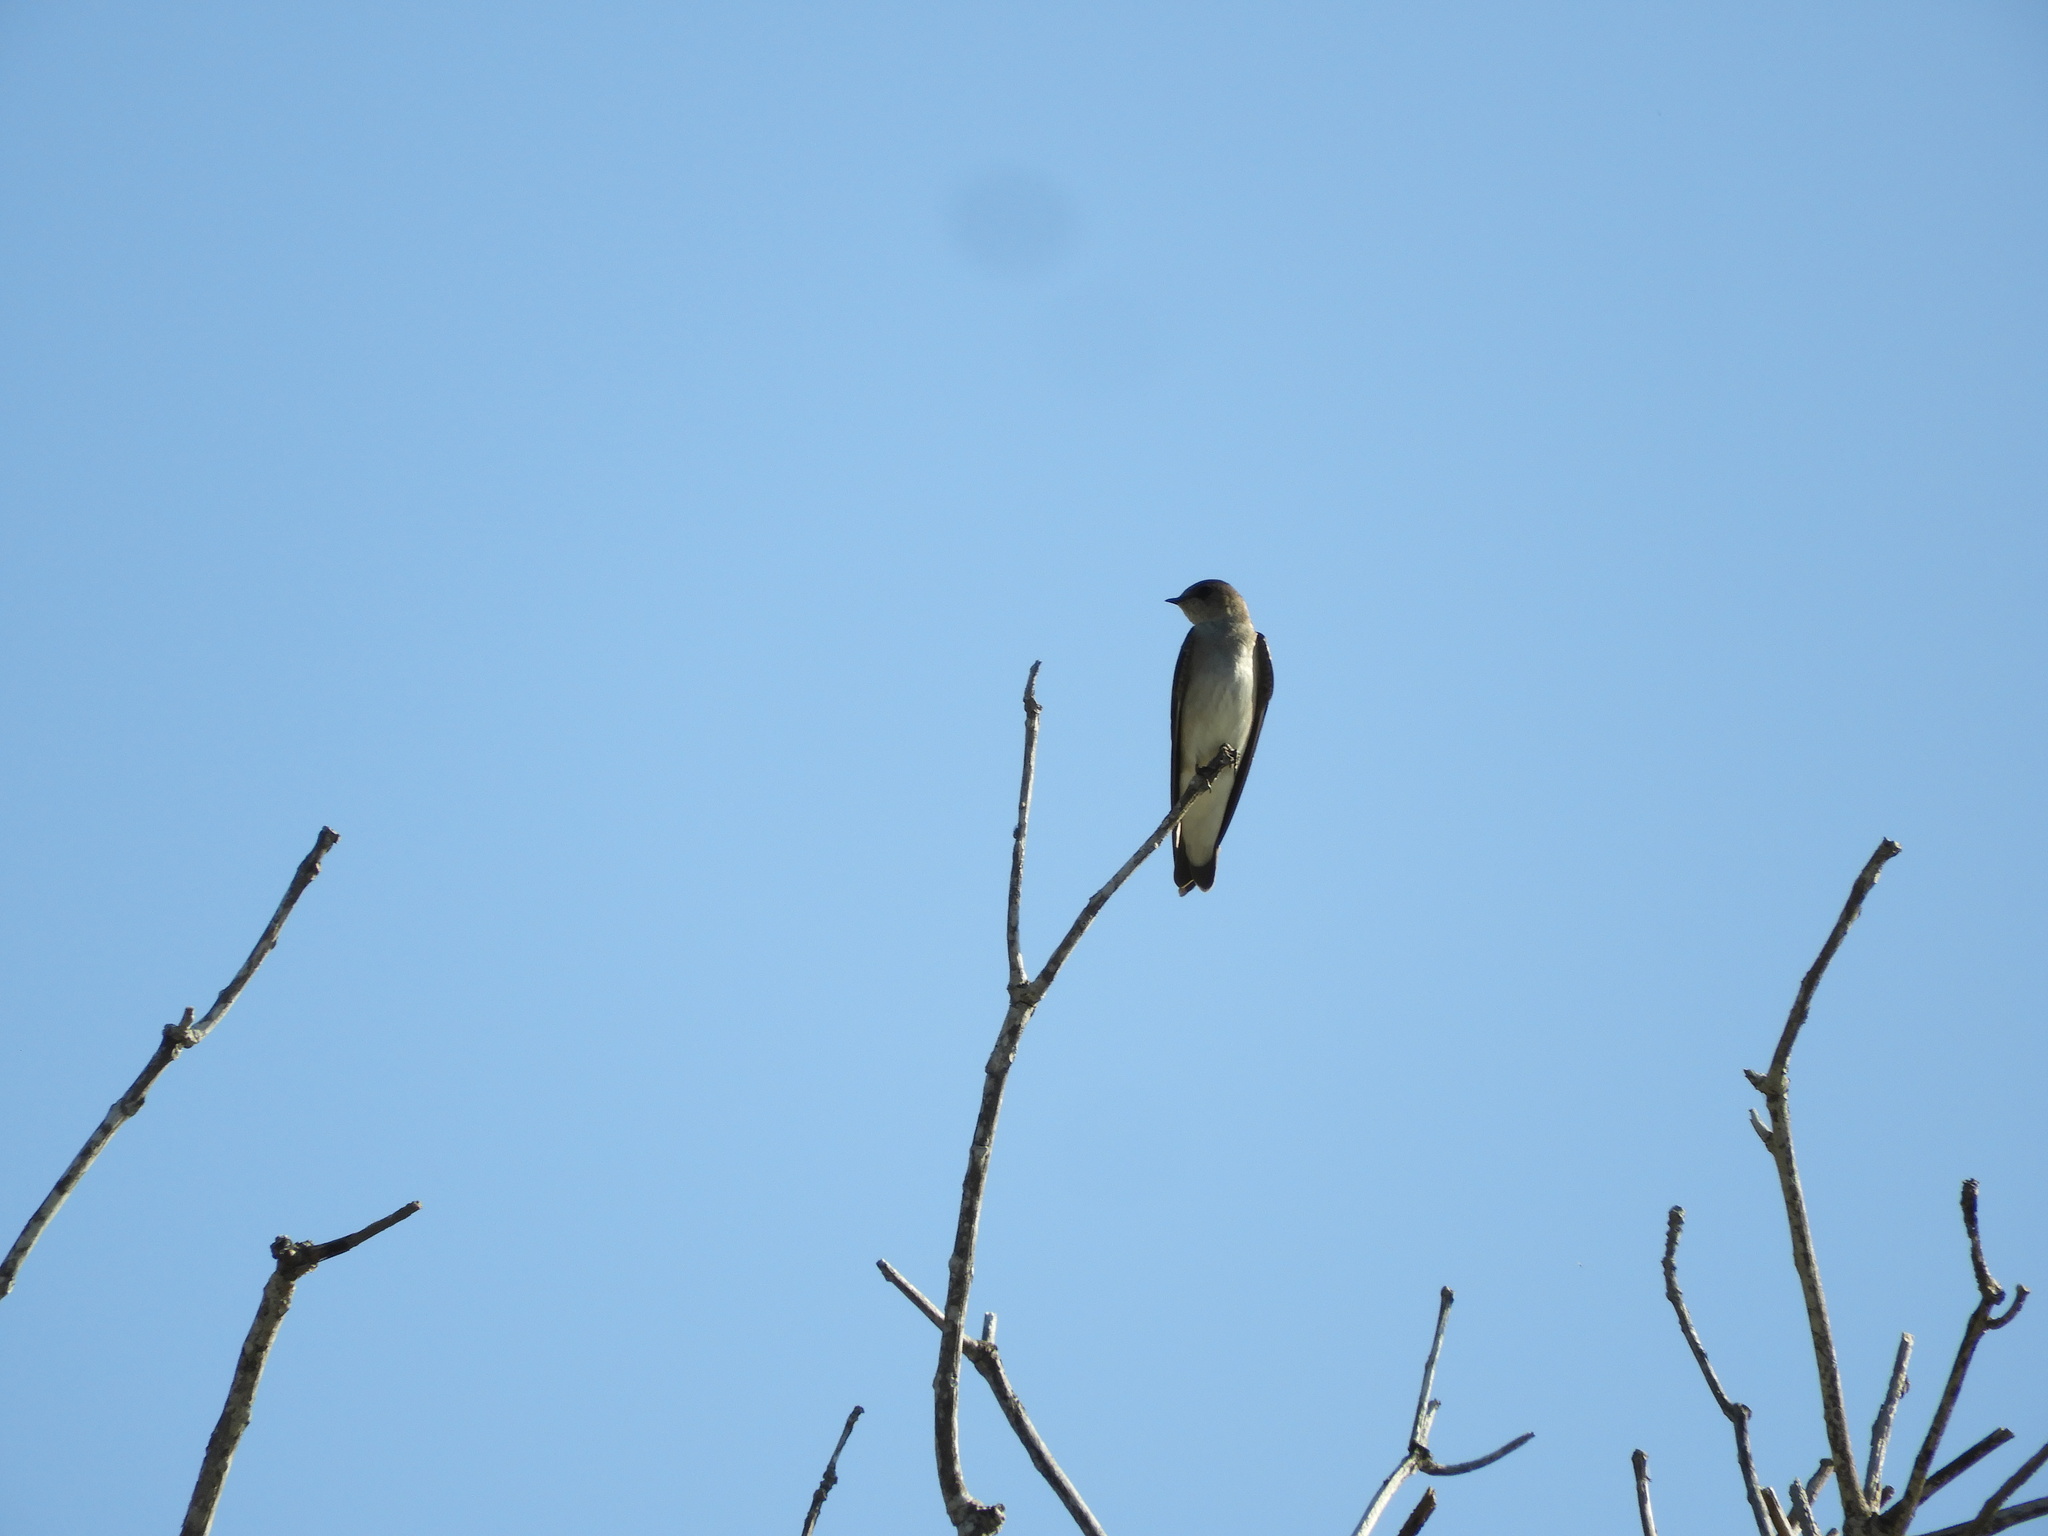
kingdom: Animalia
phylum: Chordata
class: Aves
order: Passeriformes
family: Hirundinidae
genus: Stelgidopteryx
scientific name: Stelgidopteryx serripennis
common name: Northern rough-winged swallow
